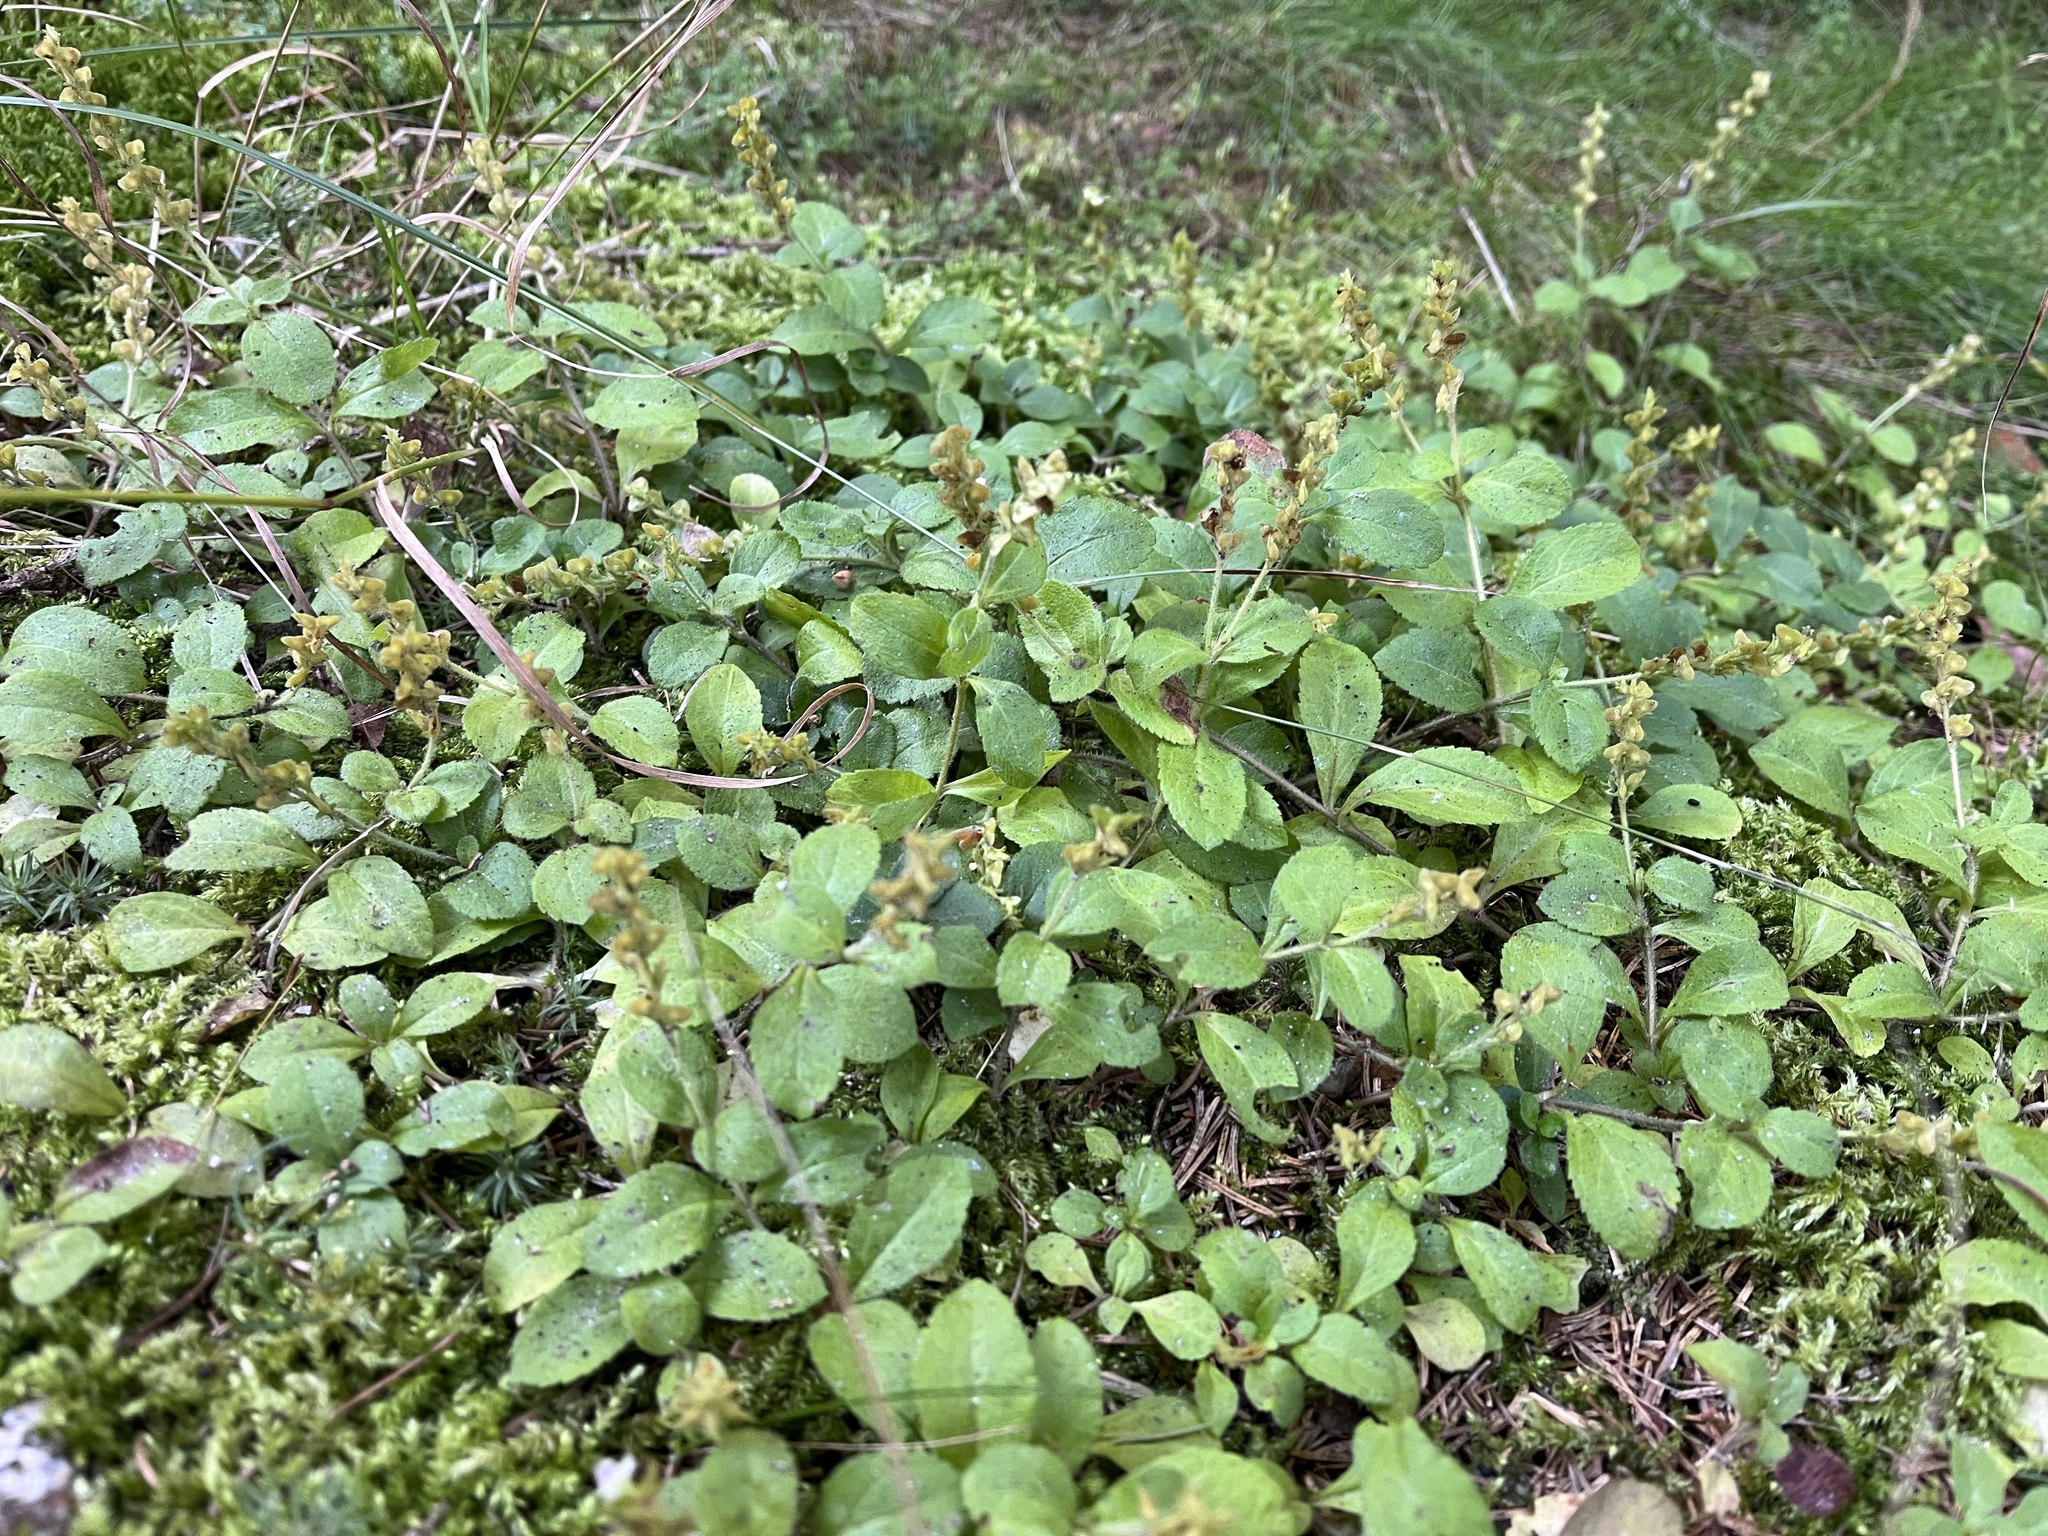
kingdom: Plantae
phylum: Tracheophyta
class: Magnoliopsida
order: Lamiales
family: Plantaginaceae
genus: Veronica
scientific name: Veronica officinalis
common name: Common speedwell
